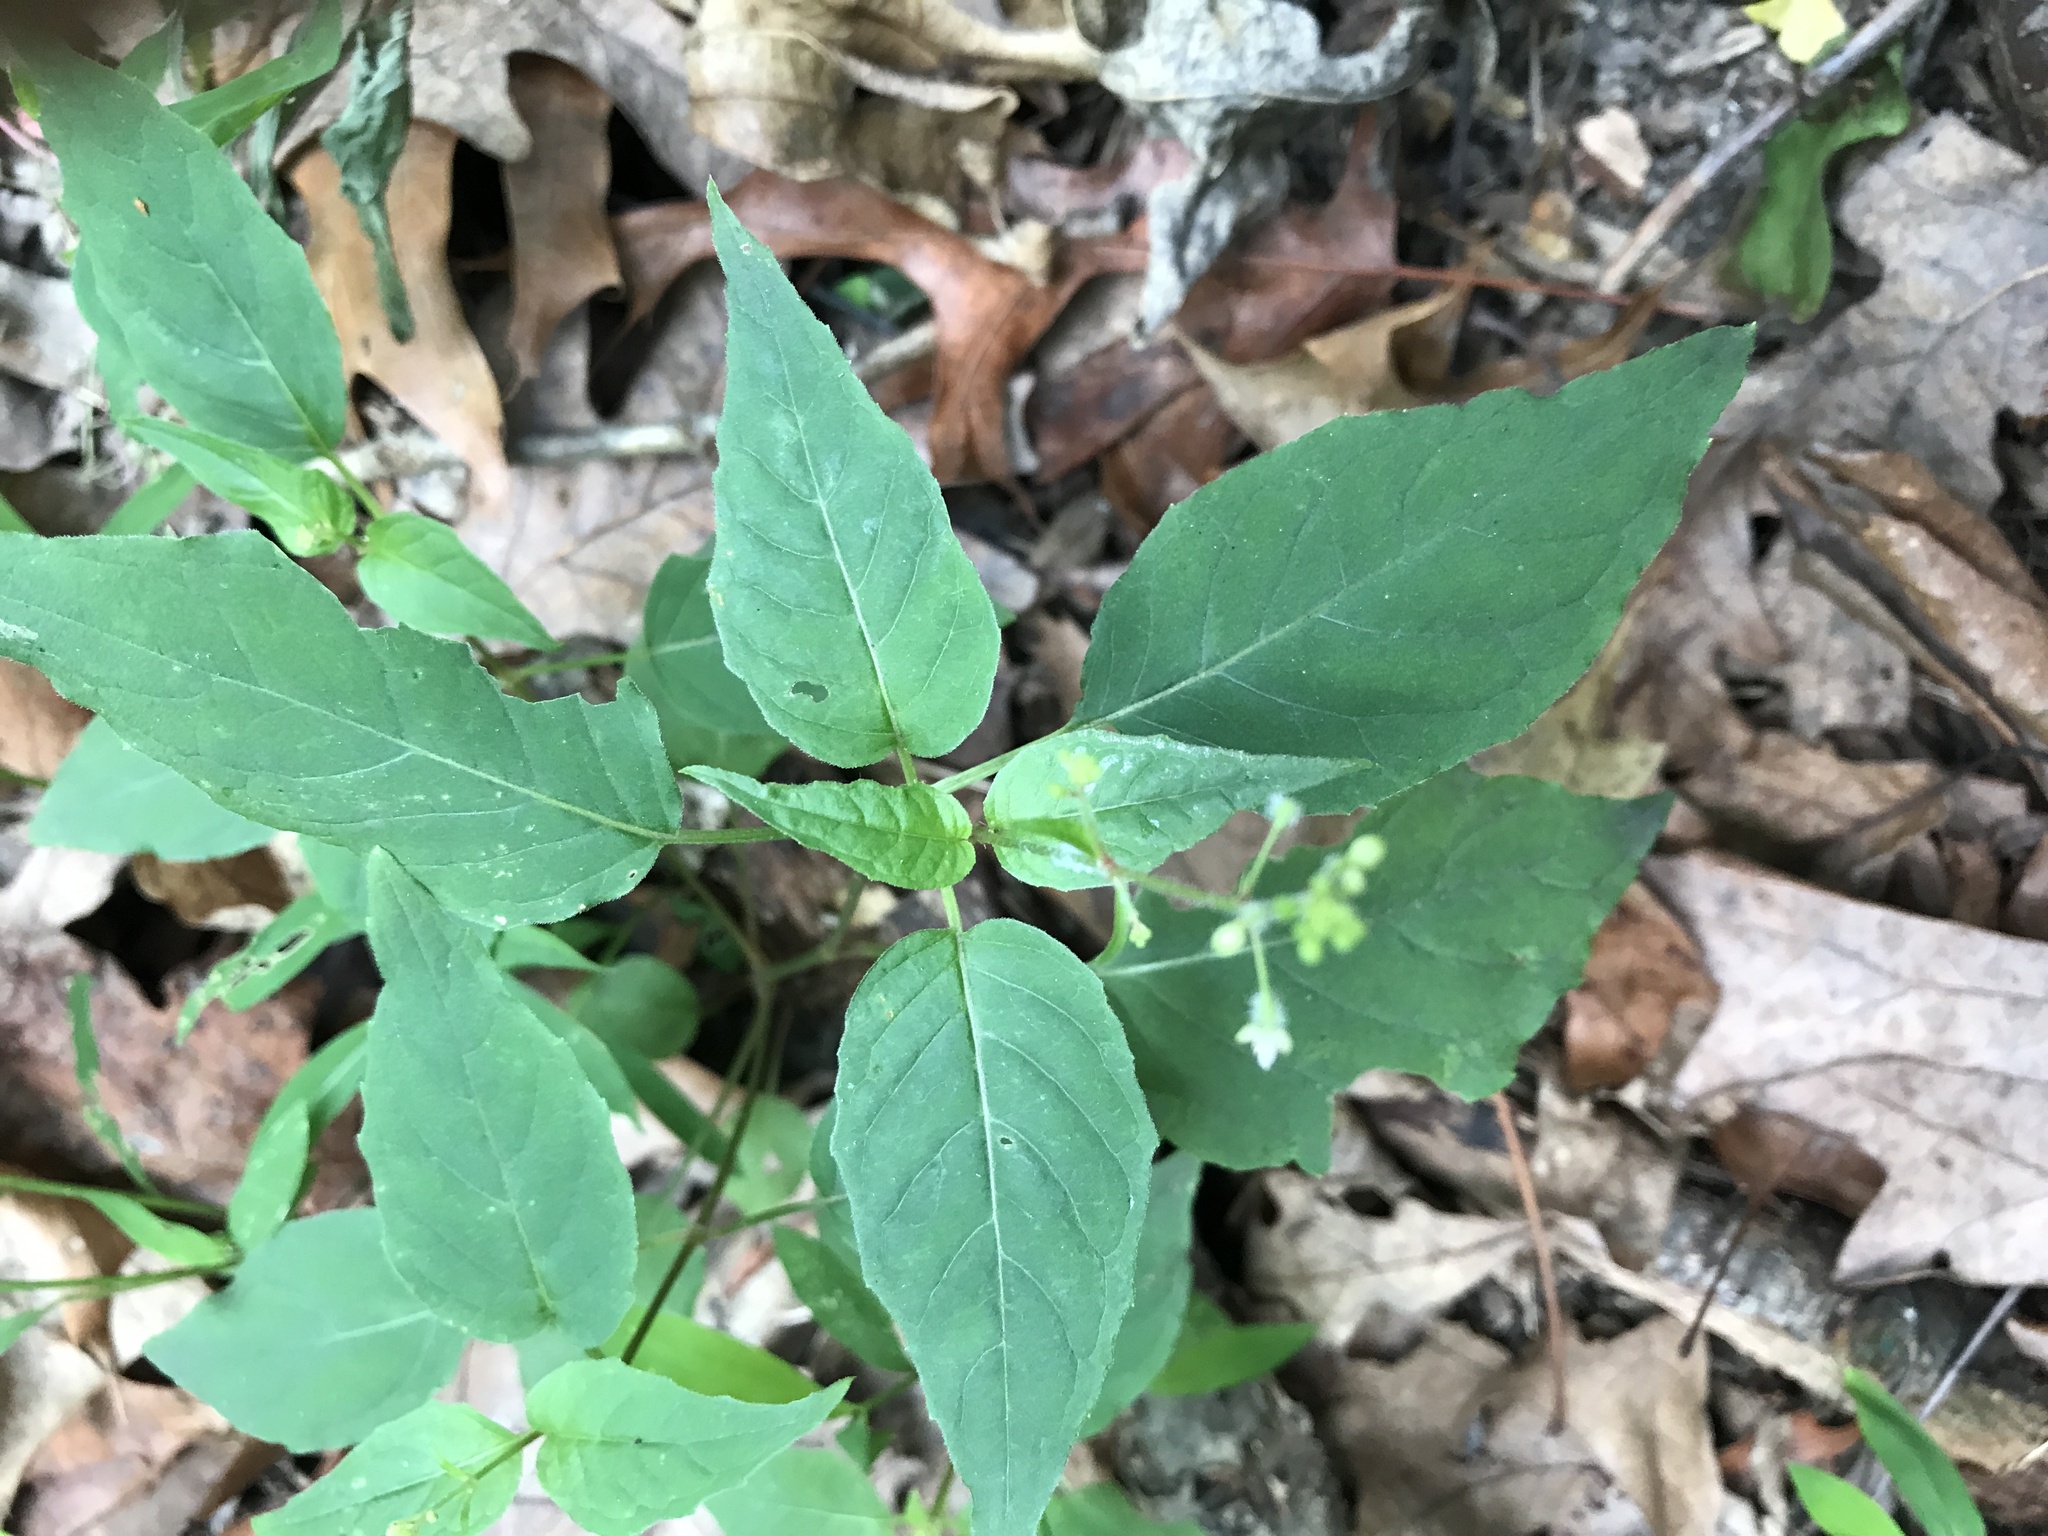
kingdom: Plantae
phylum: Tracheophyta
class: Magnoliopsida
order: Myrtales
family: Onagraceae
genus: Circaea
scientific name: Circaea canadensis
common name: Broad-leaved enchanter's nightshade
